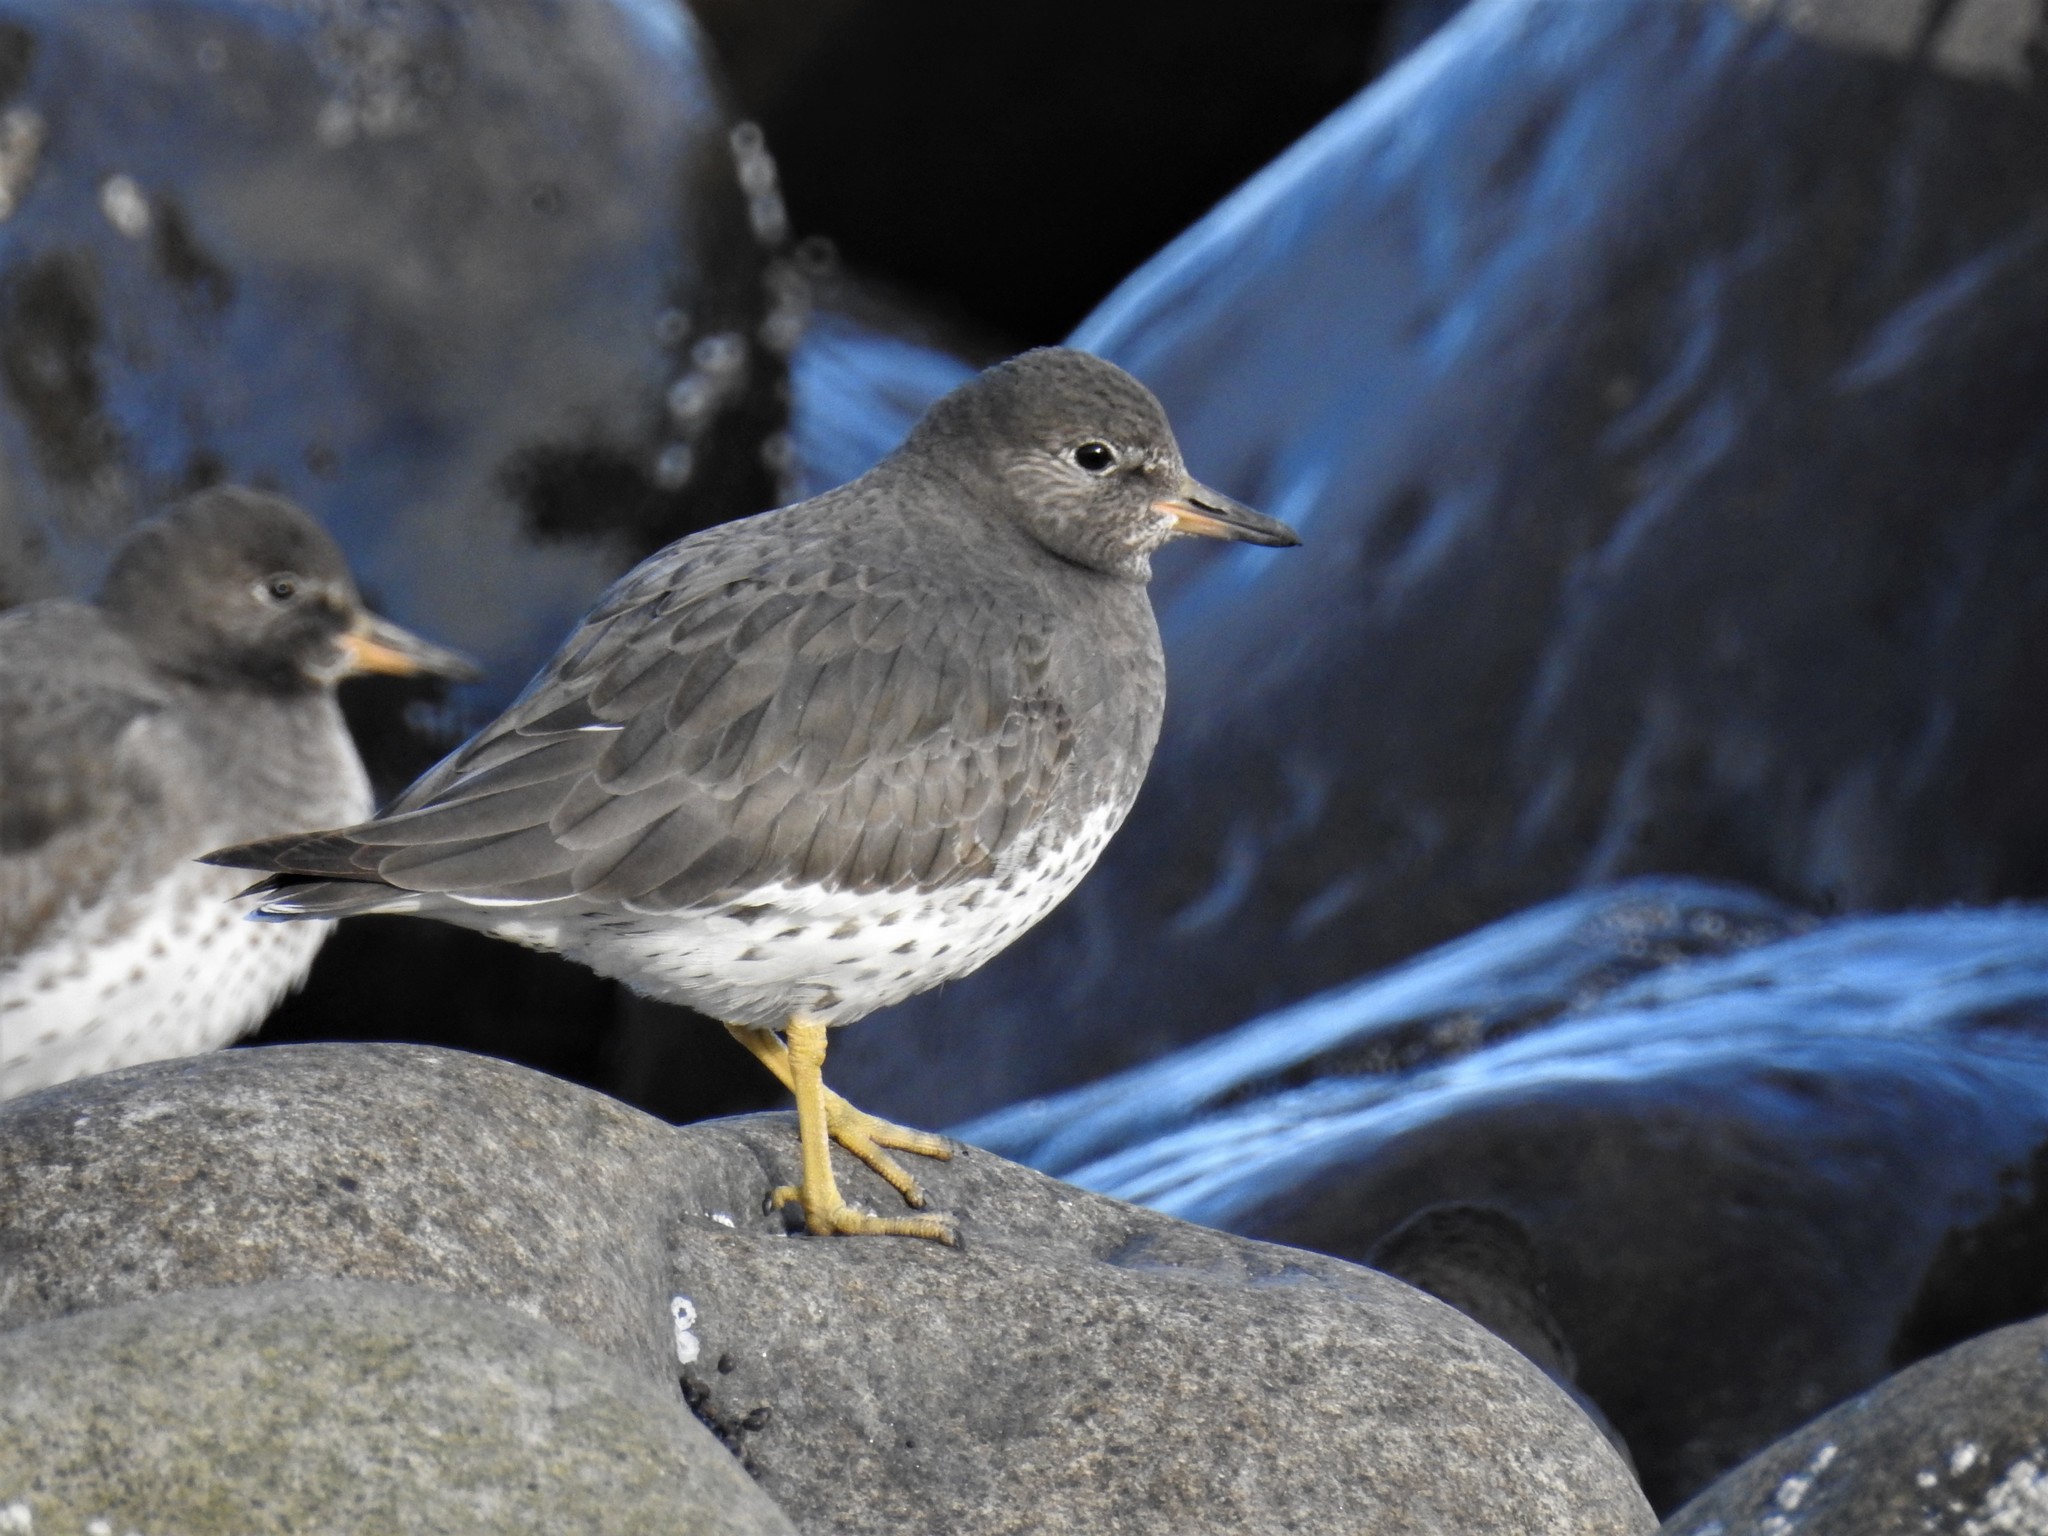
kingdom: Animalia
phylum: Chordata
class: Aves
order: Charadriiformes
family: Scolopacidae
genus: Calidris
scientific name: Calidris virgata
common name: Surfbird
